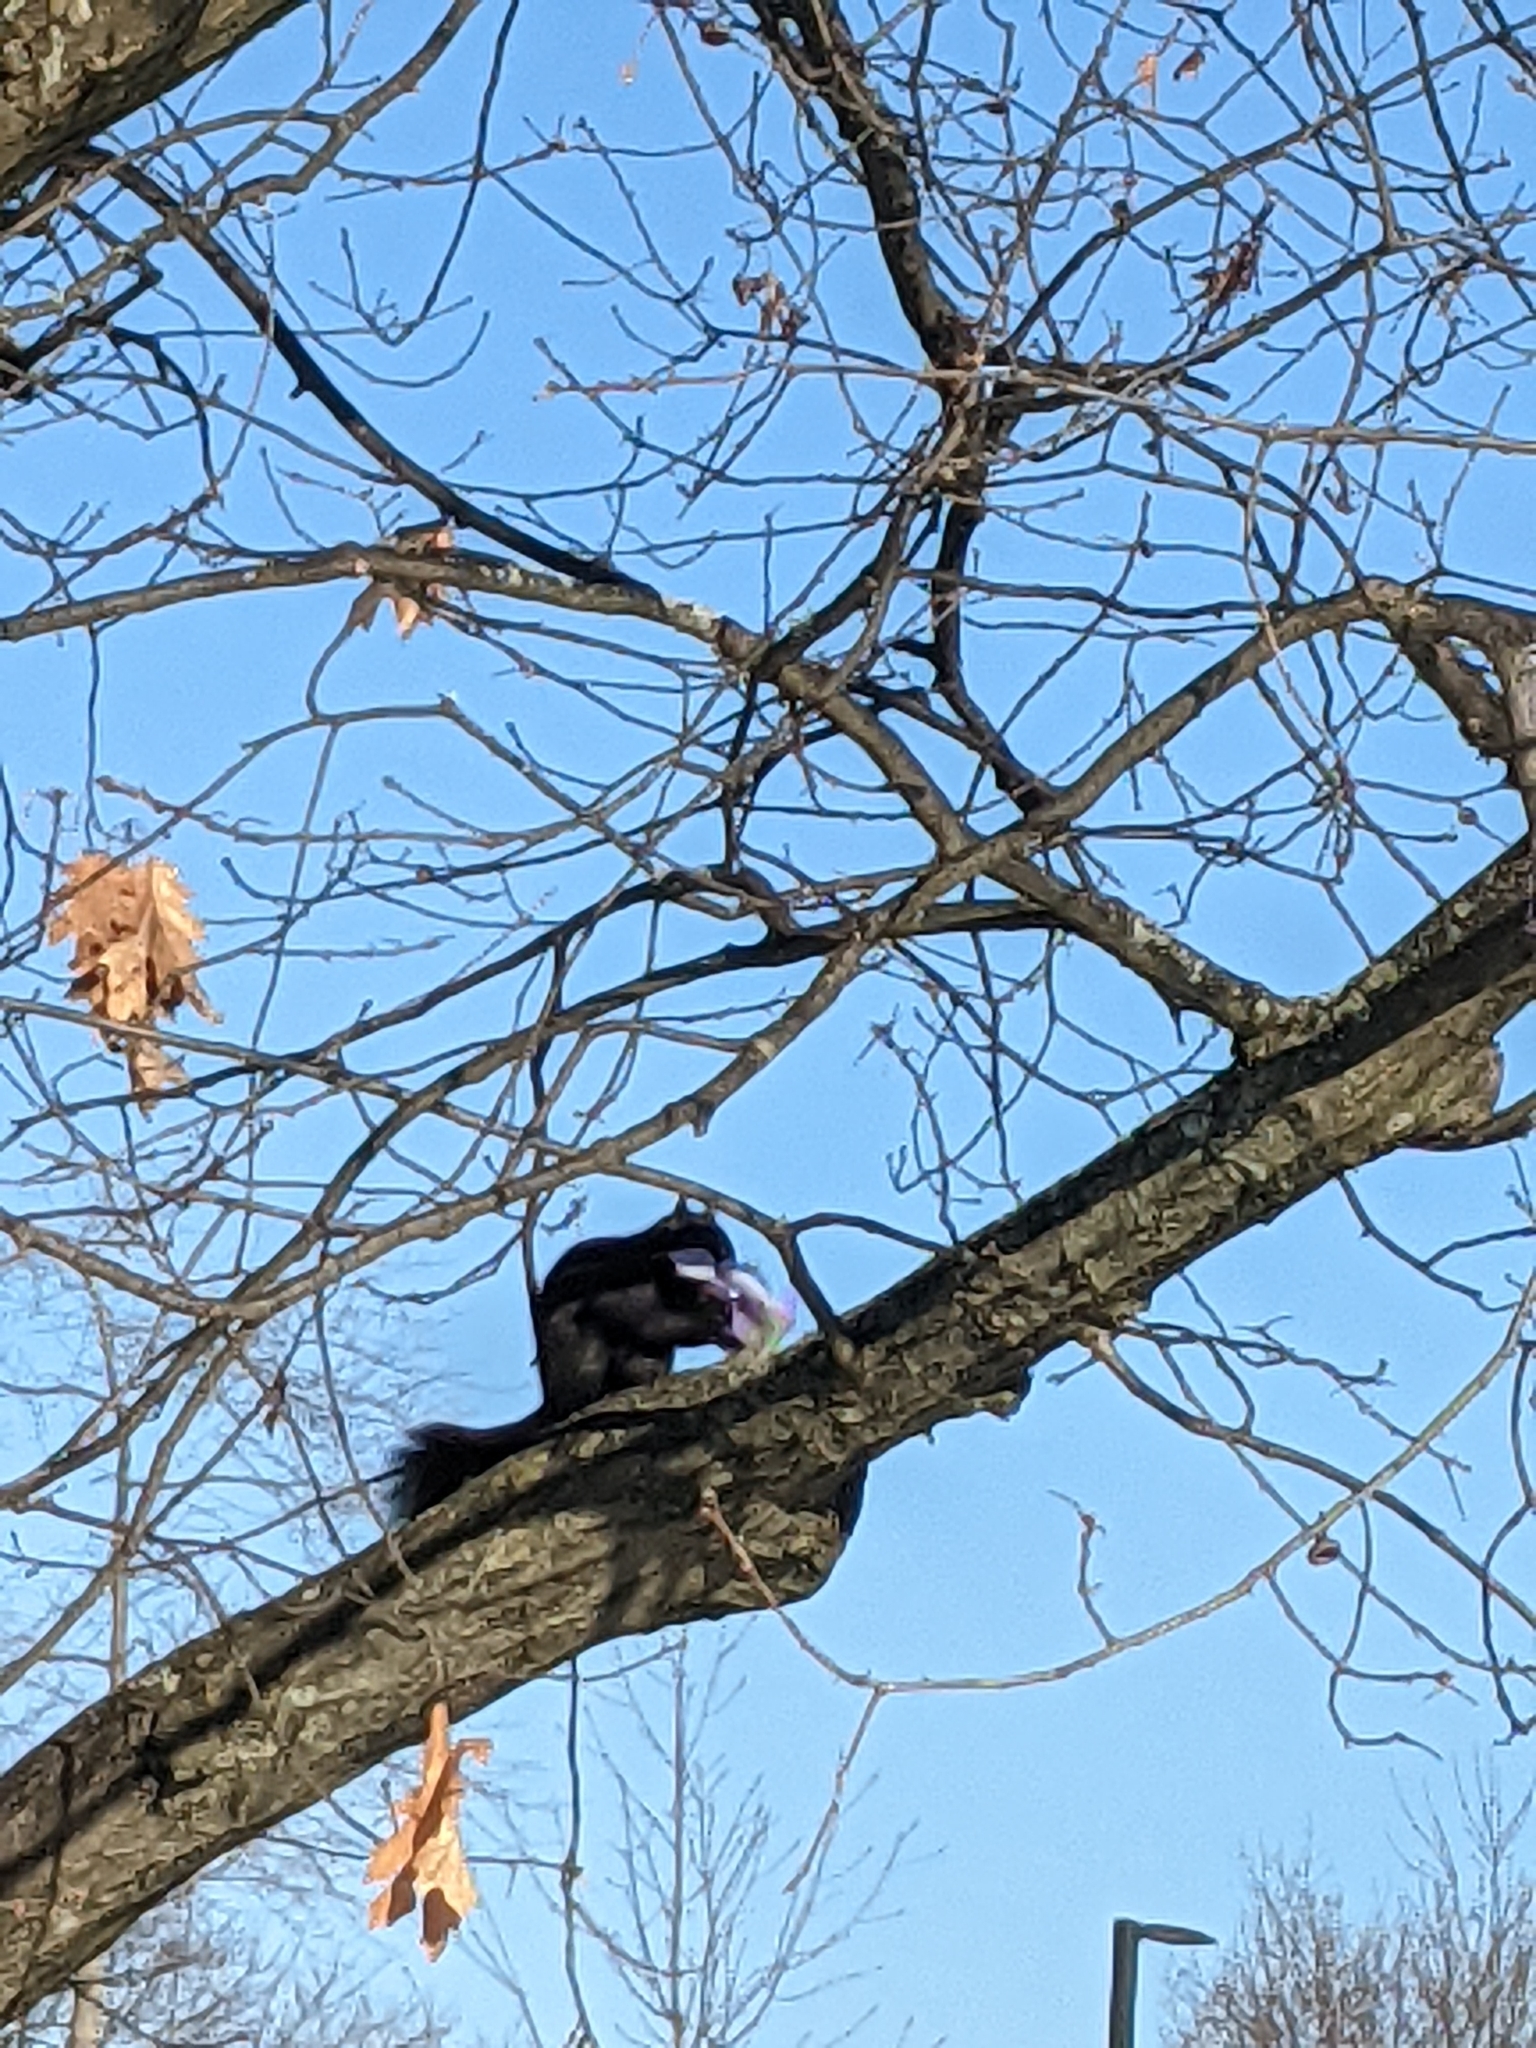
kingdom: Animalia
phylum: Chordata
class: Mammalia
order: Rodentia
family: Sciuridae
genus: Sciurus
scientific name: Sciurus carolinensis
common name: Eastern gray squirrel
